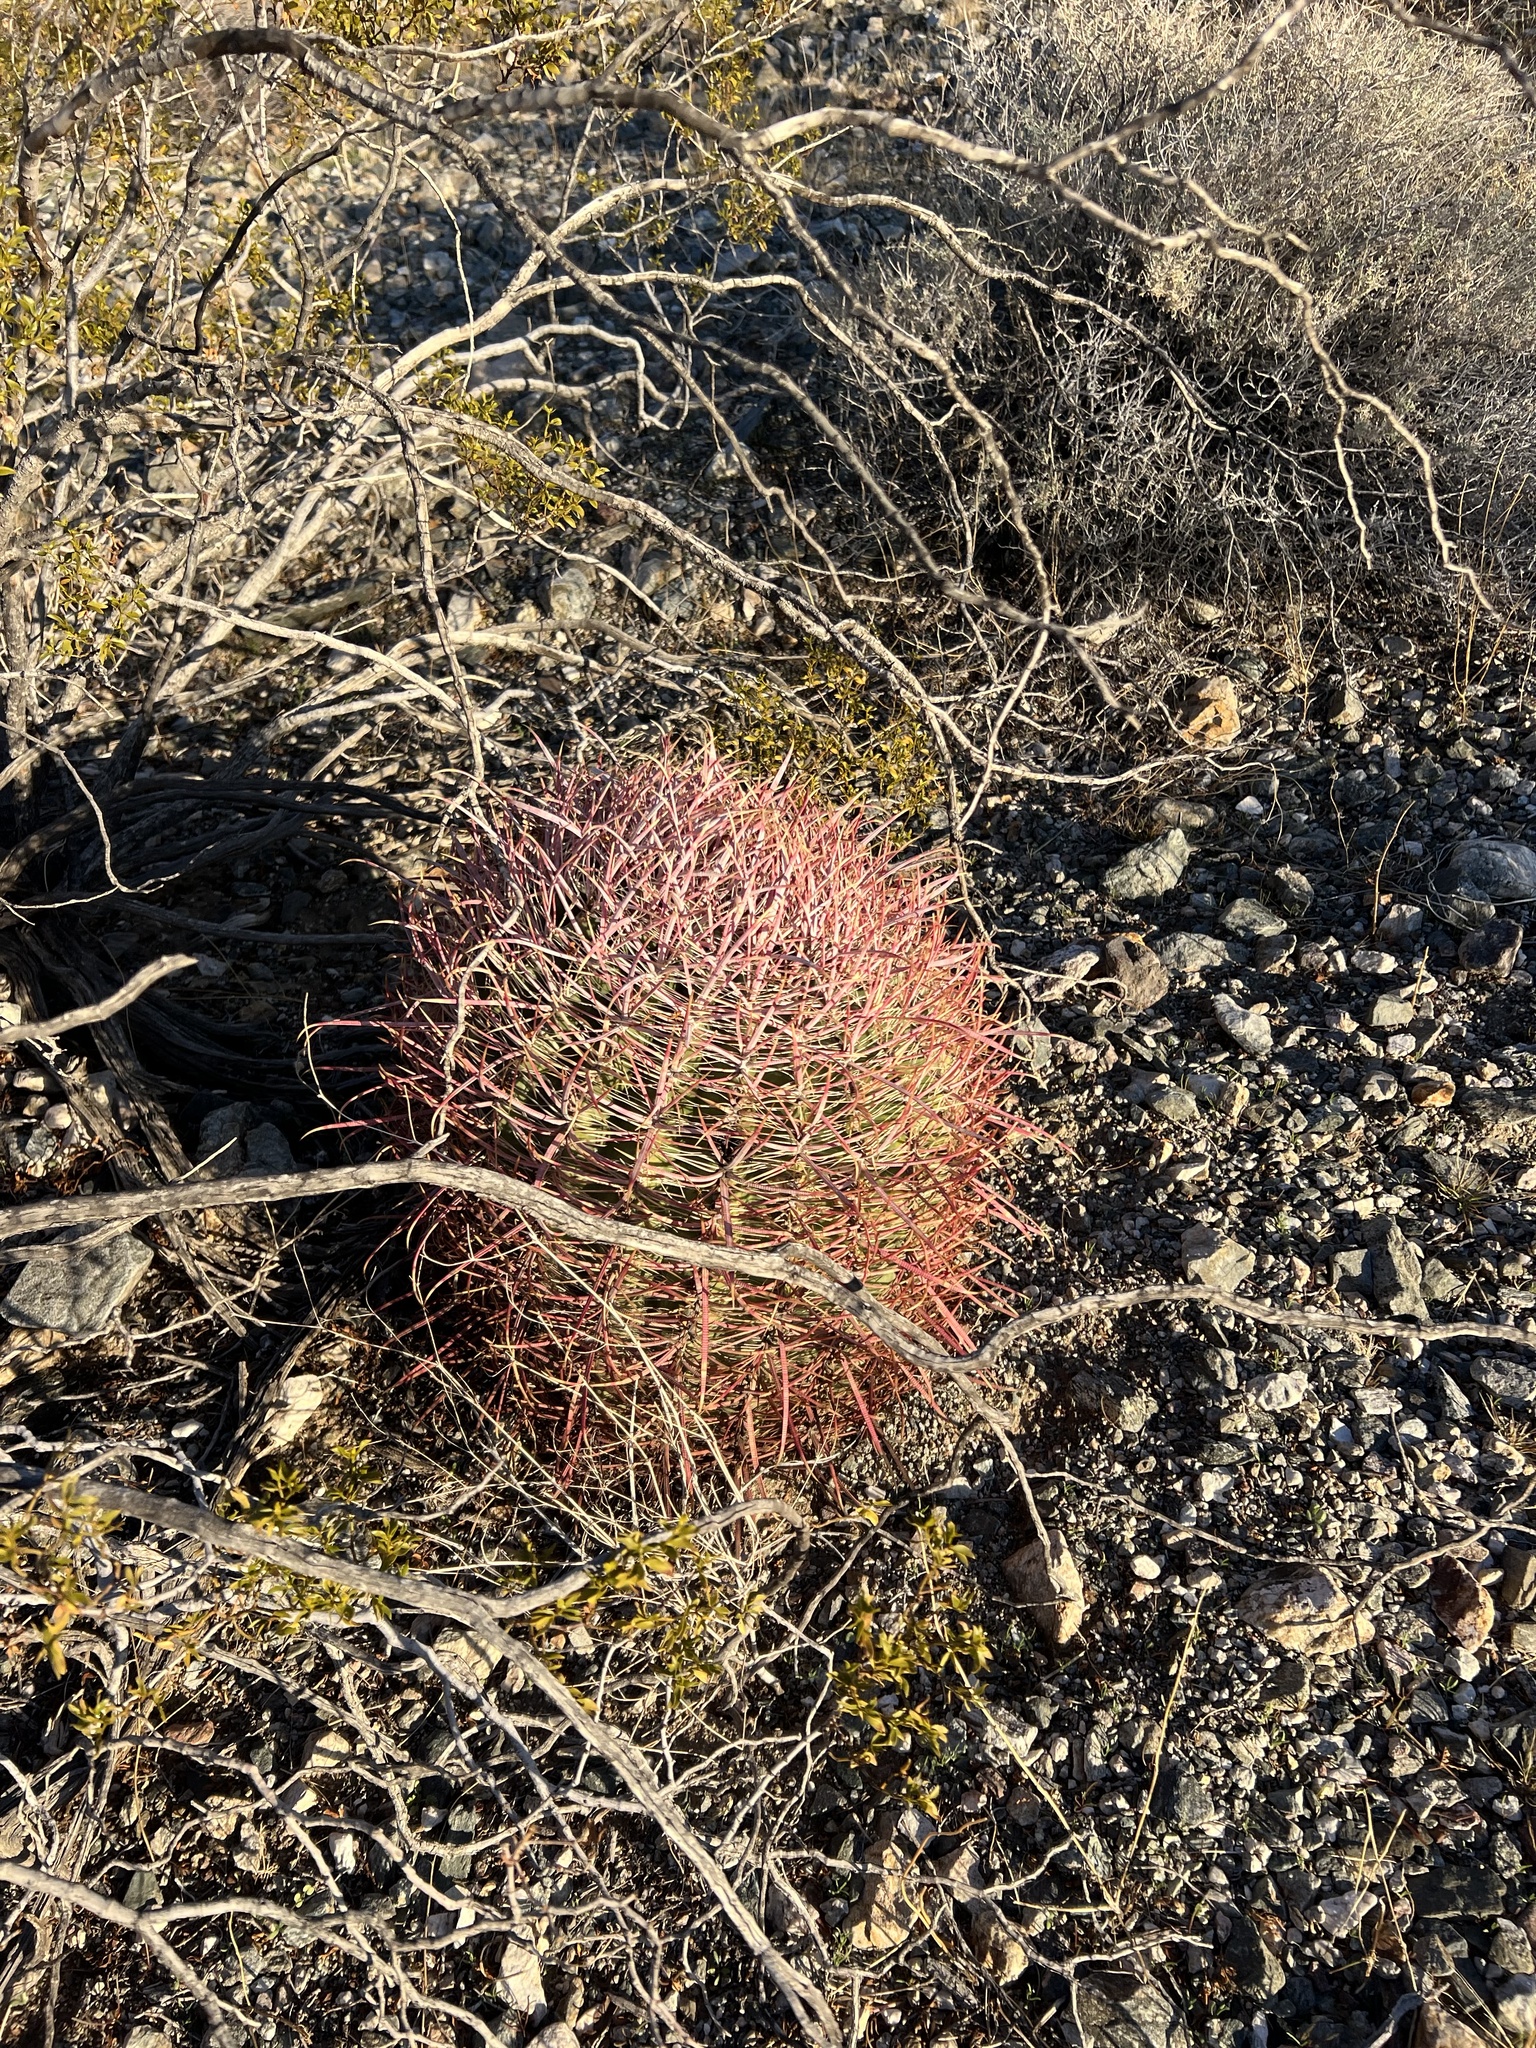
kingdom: Plantae
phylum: Tracheophyta
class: Magnoliopsida
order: Caryophyllales
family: Cactaceae
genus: Ferocactus
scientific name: Ferocactus cylindraceus
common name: California barrel cactus
